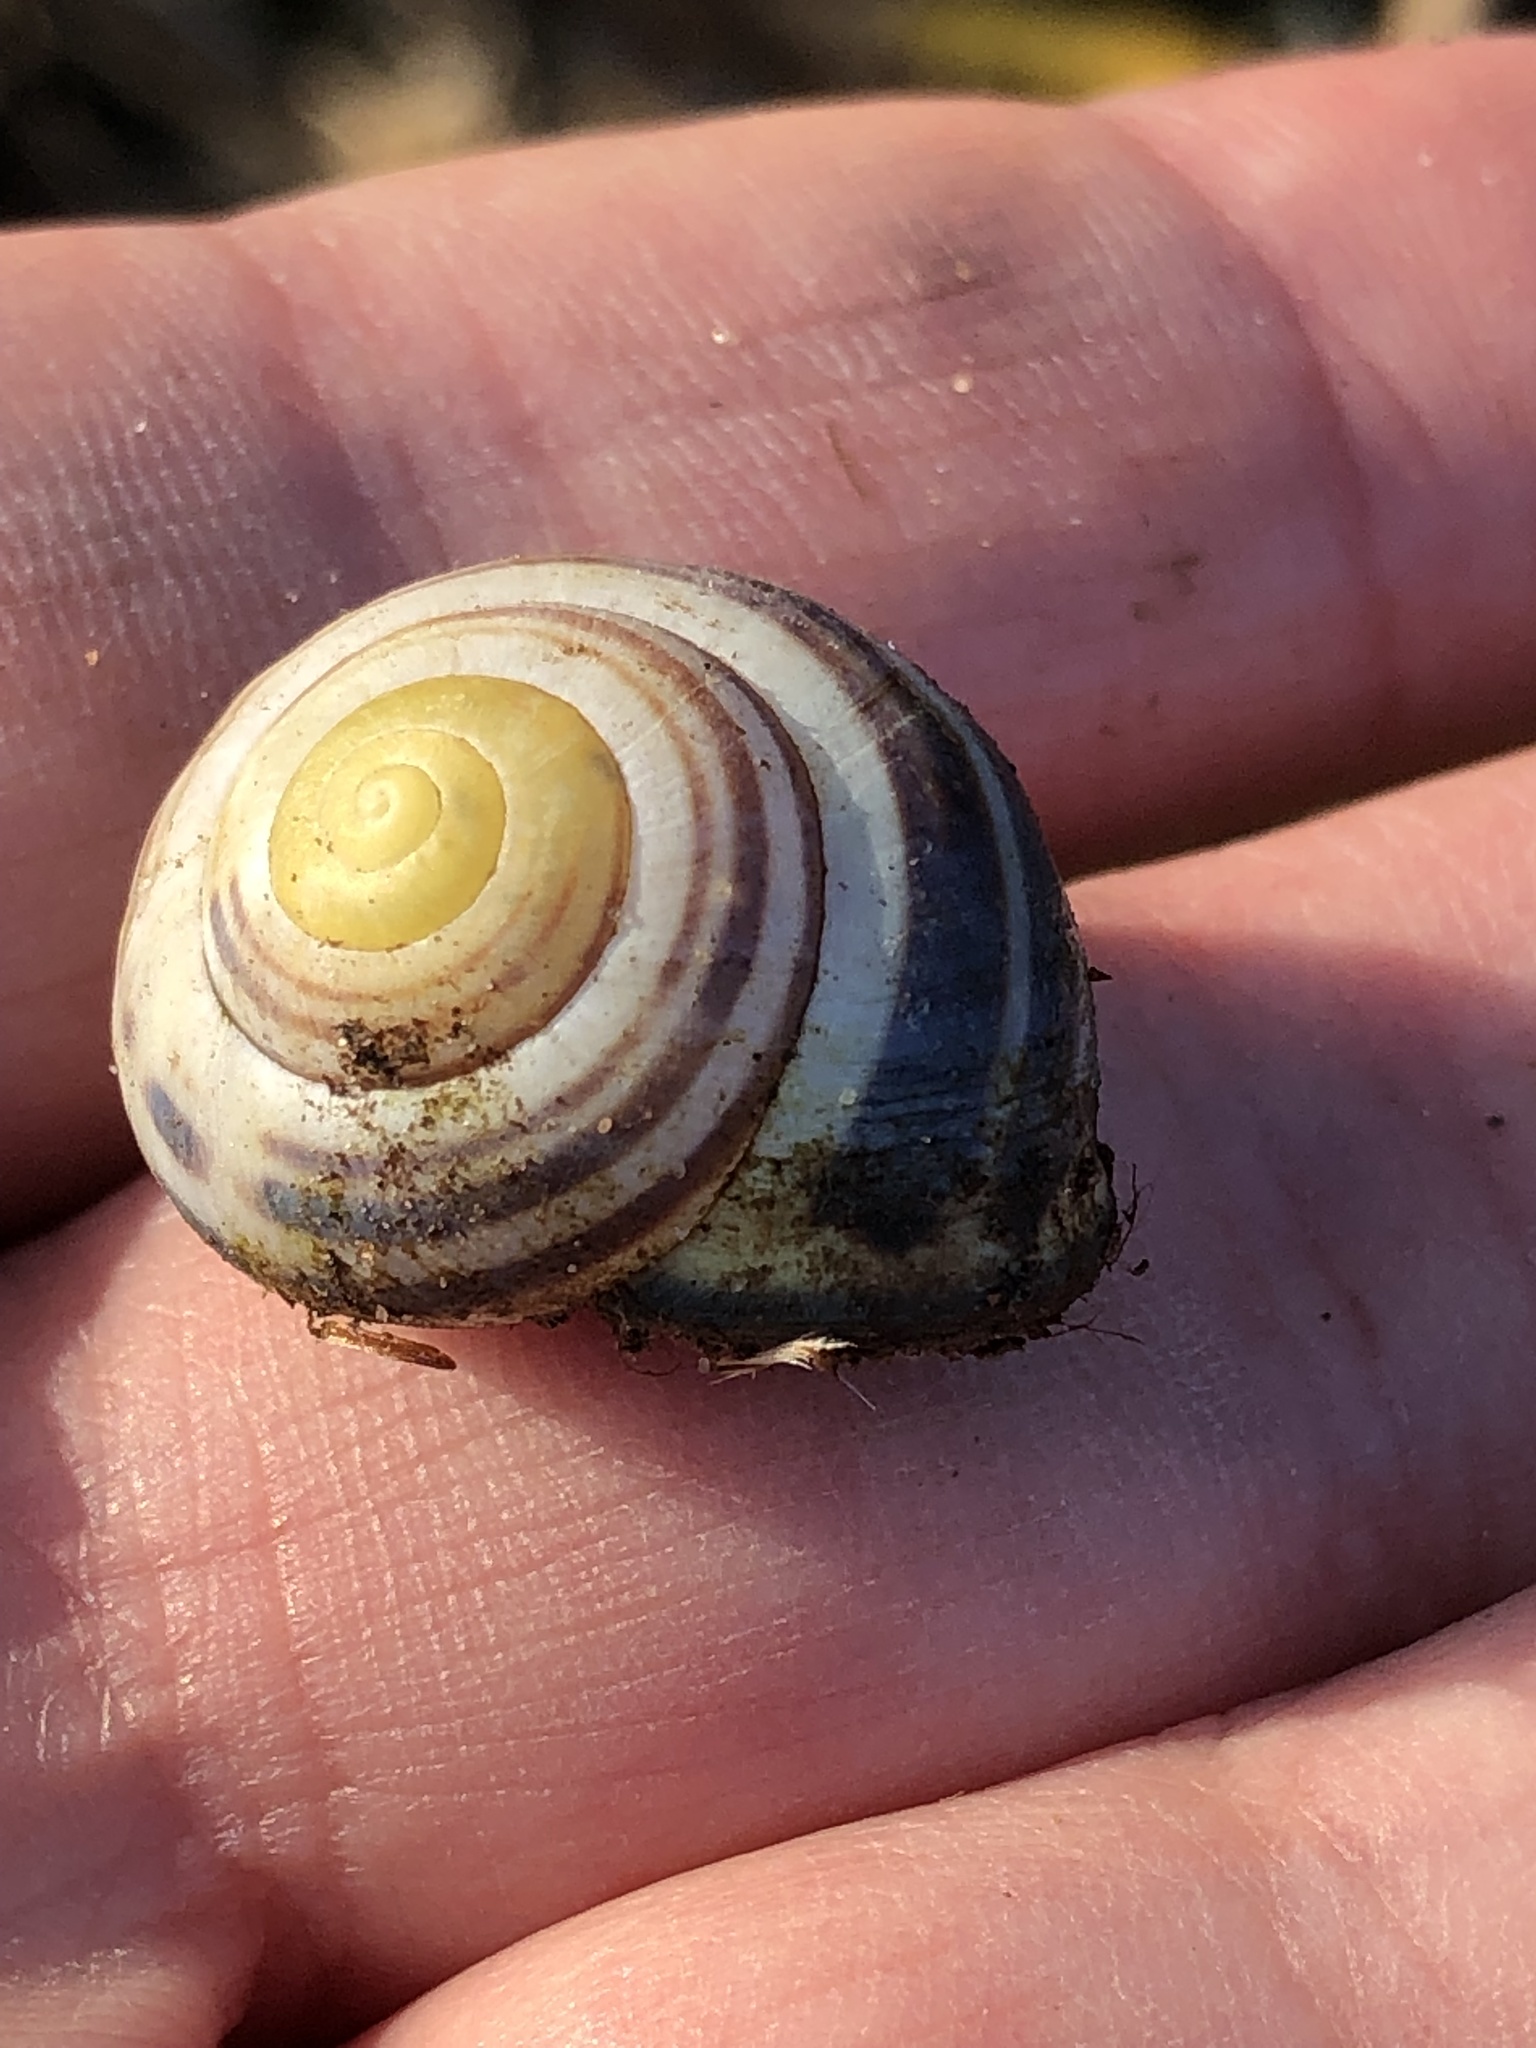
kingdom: Animalia
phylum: Mollusca
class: Gastropoda
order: Stylommatophora
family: Helicidae
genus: Cepaea
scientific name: Cepaea nemoralis
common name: Grovesnail
